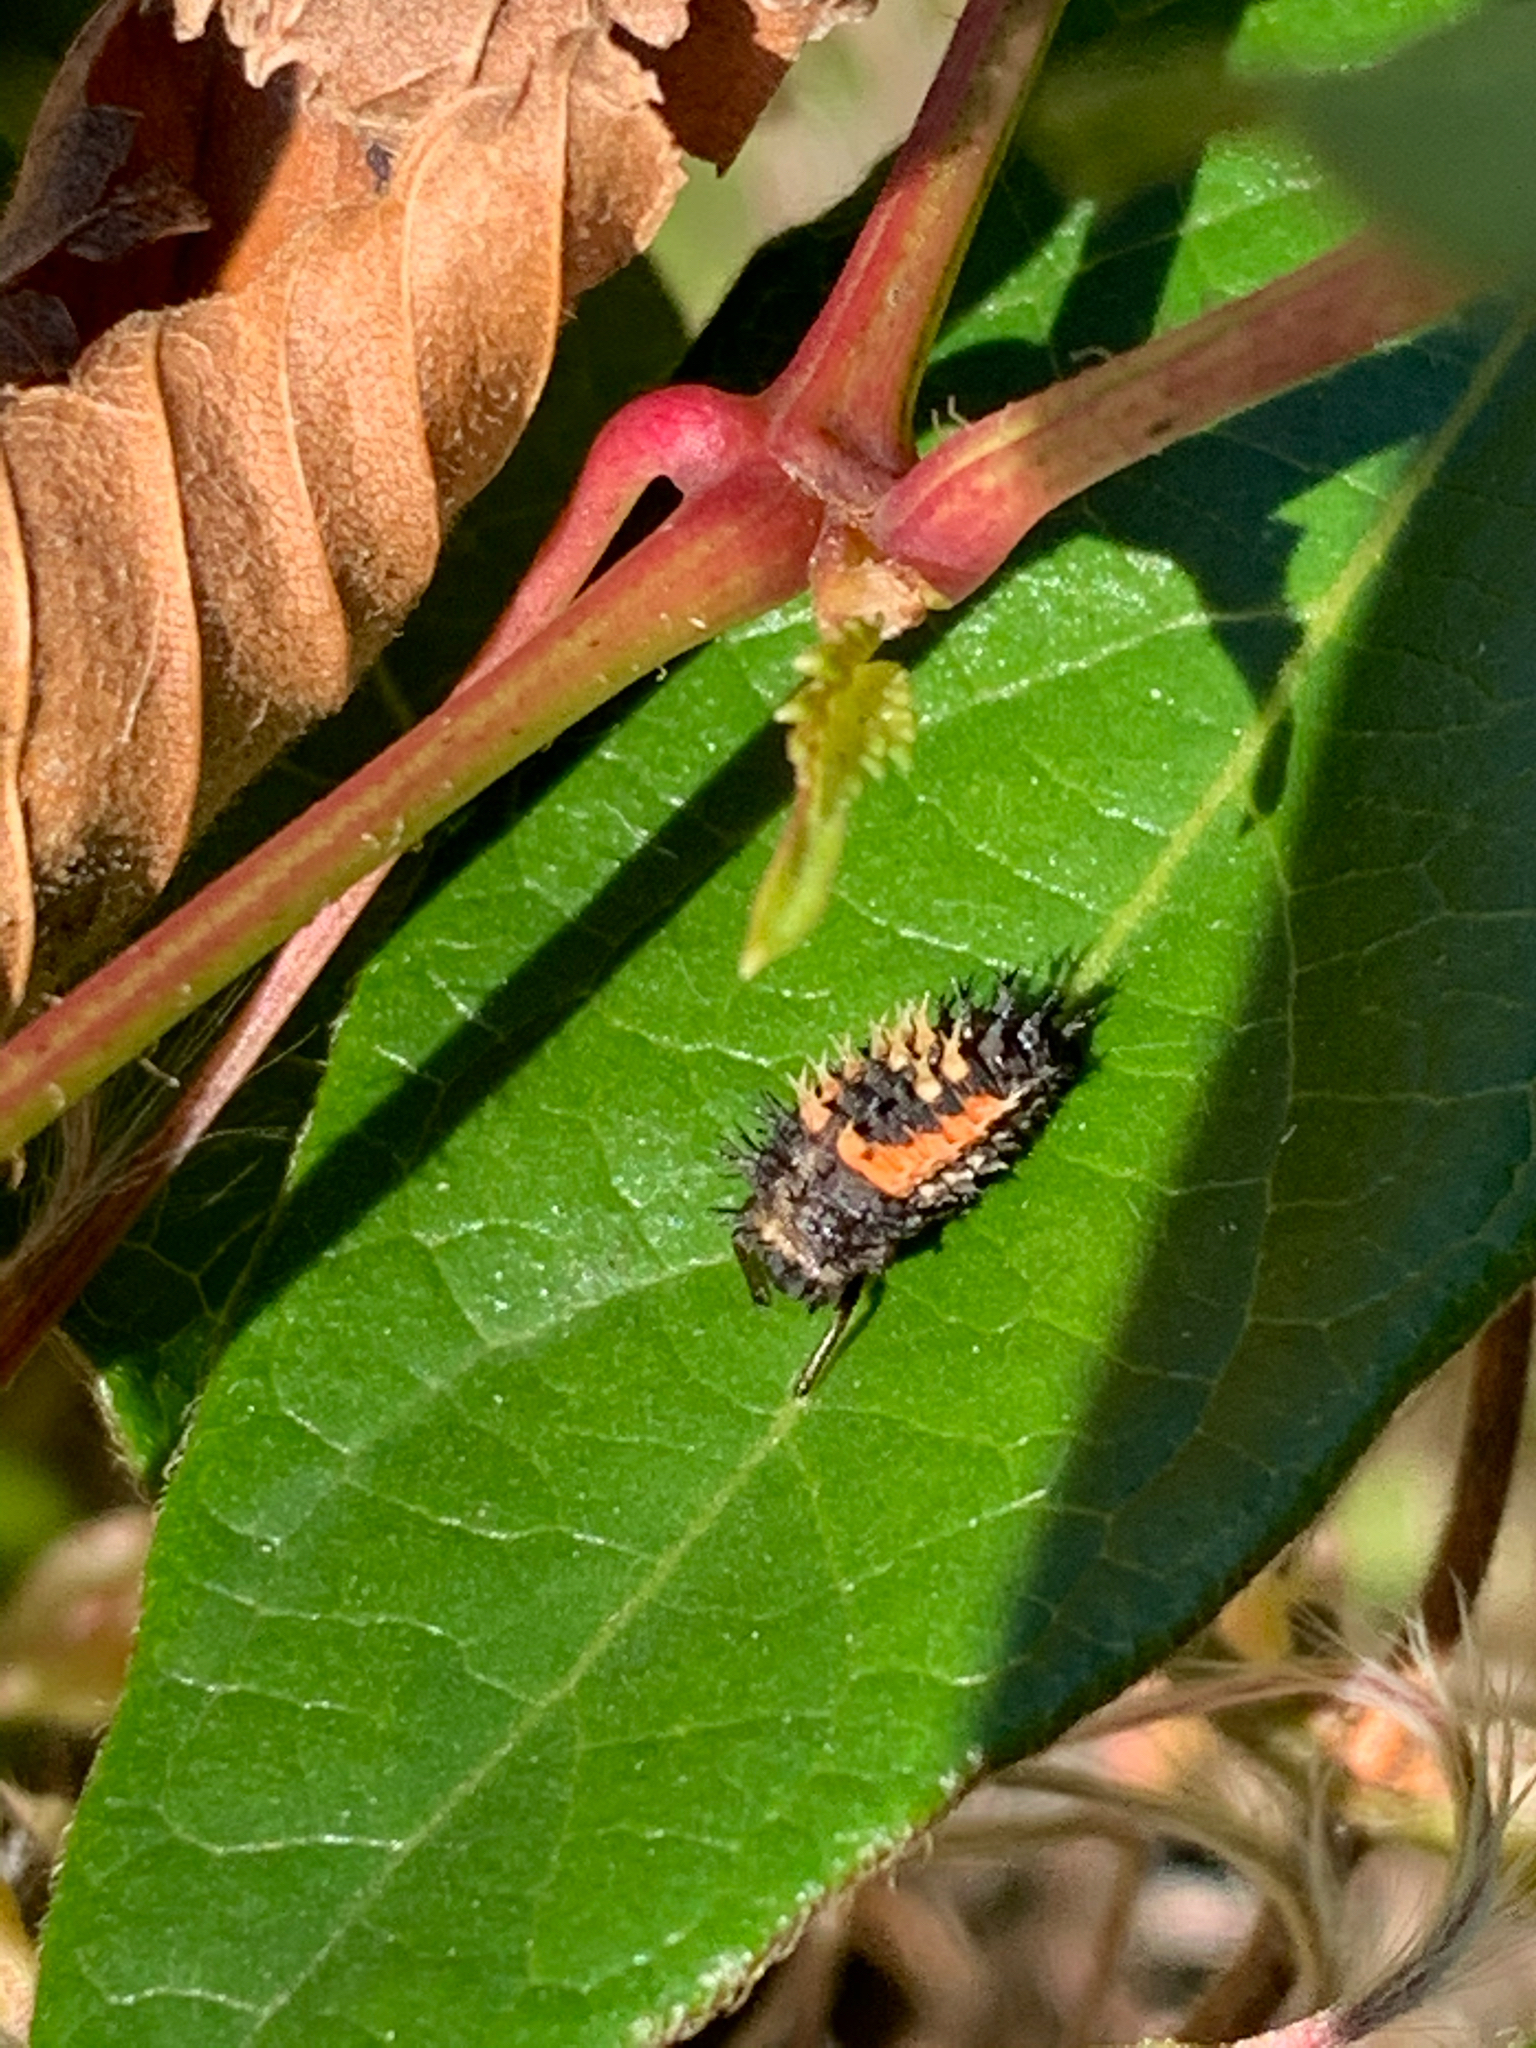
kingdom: Animalia
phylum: Arthropoda
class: Insecta
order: Coleoptera
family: Coccinellidae
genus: Harmonia
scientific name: Harmonia axyridis
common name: Harlequin ladybird
